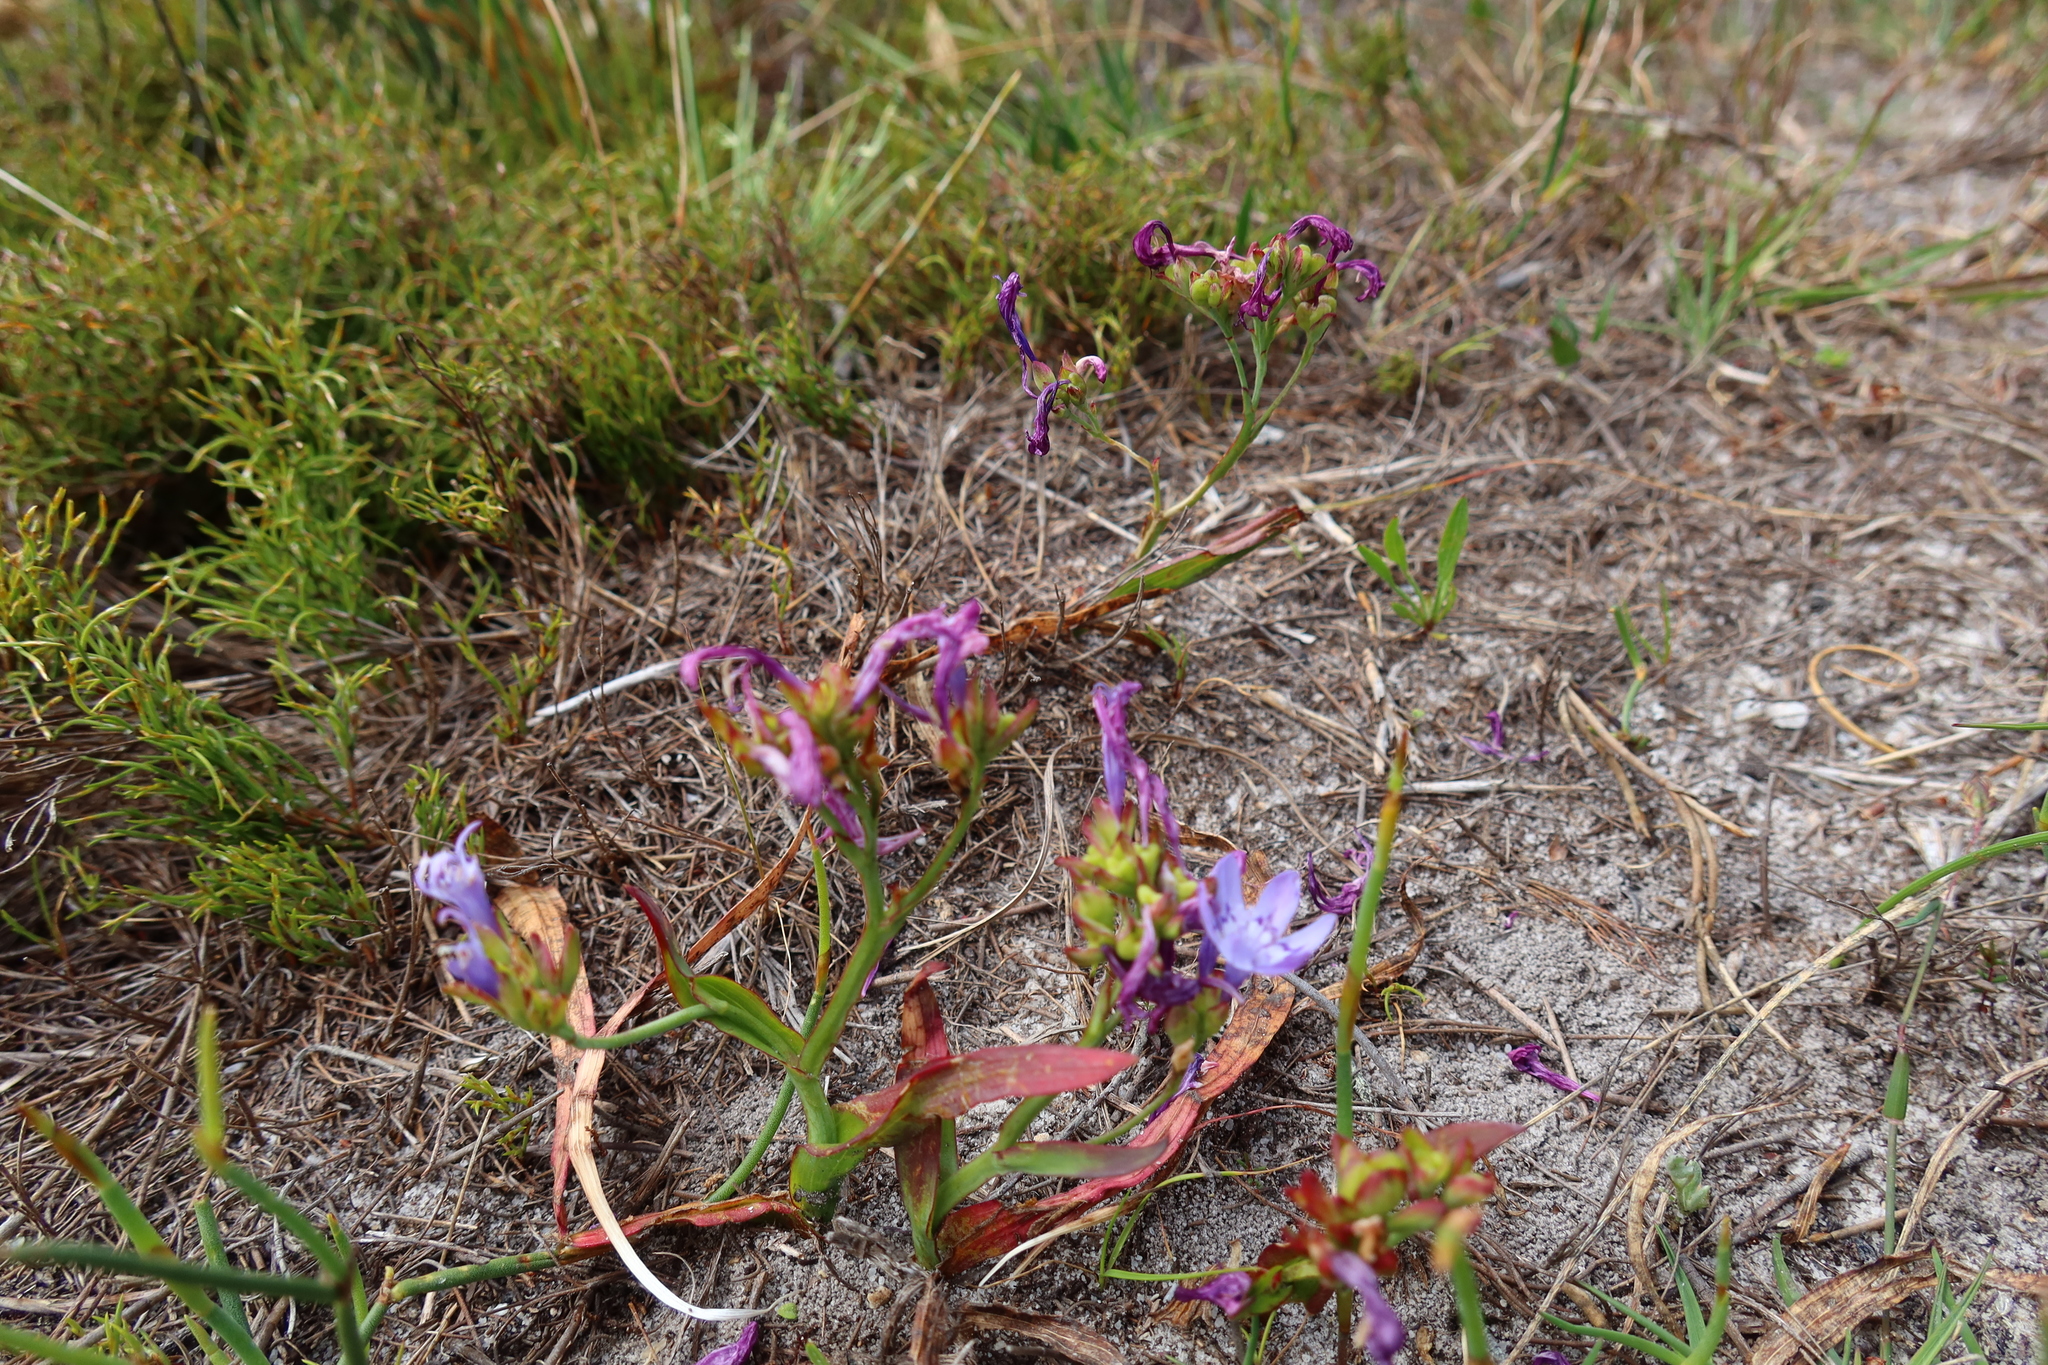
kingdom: Plantae
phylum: Tracheophyta
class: Liliopsida
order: Asparagales
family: Iridaceae
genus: Codonorhiza
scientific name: Codonorhiza corymbosa
